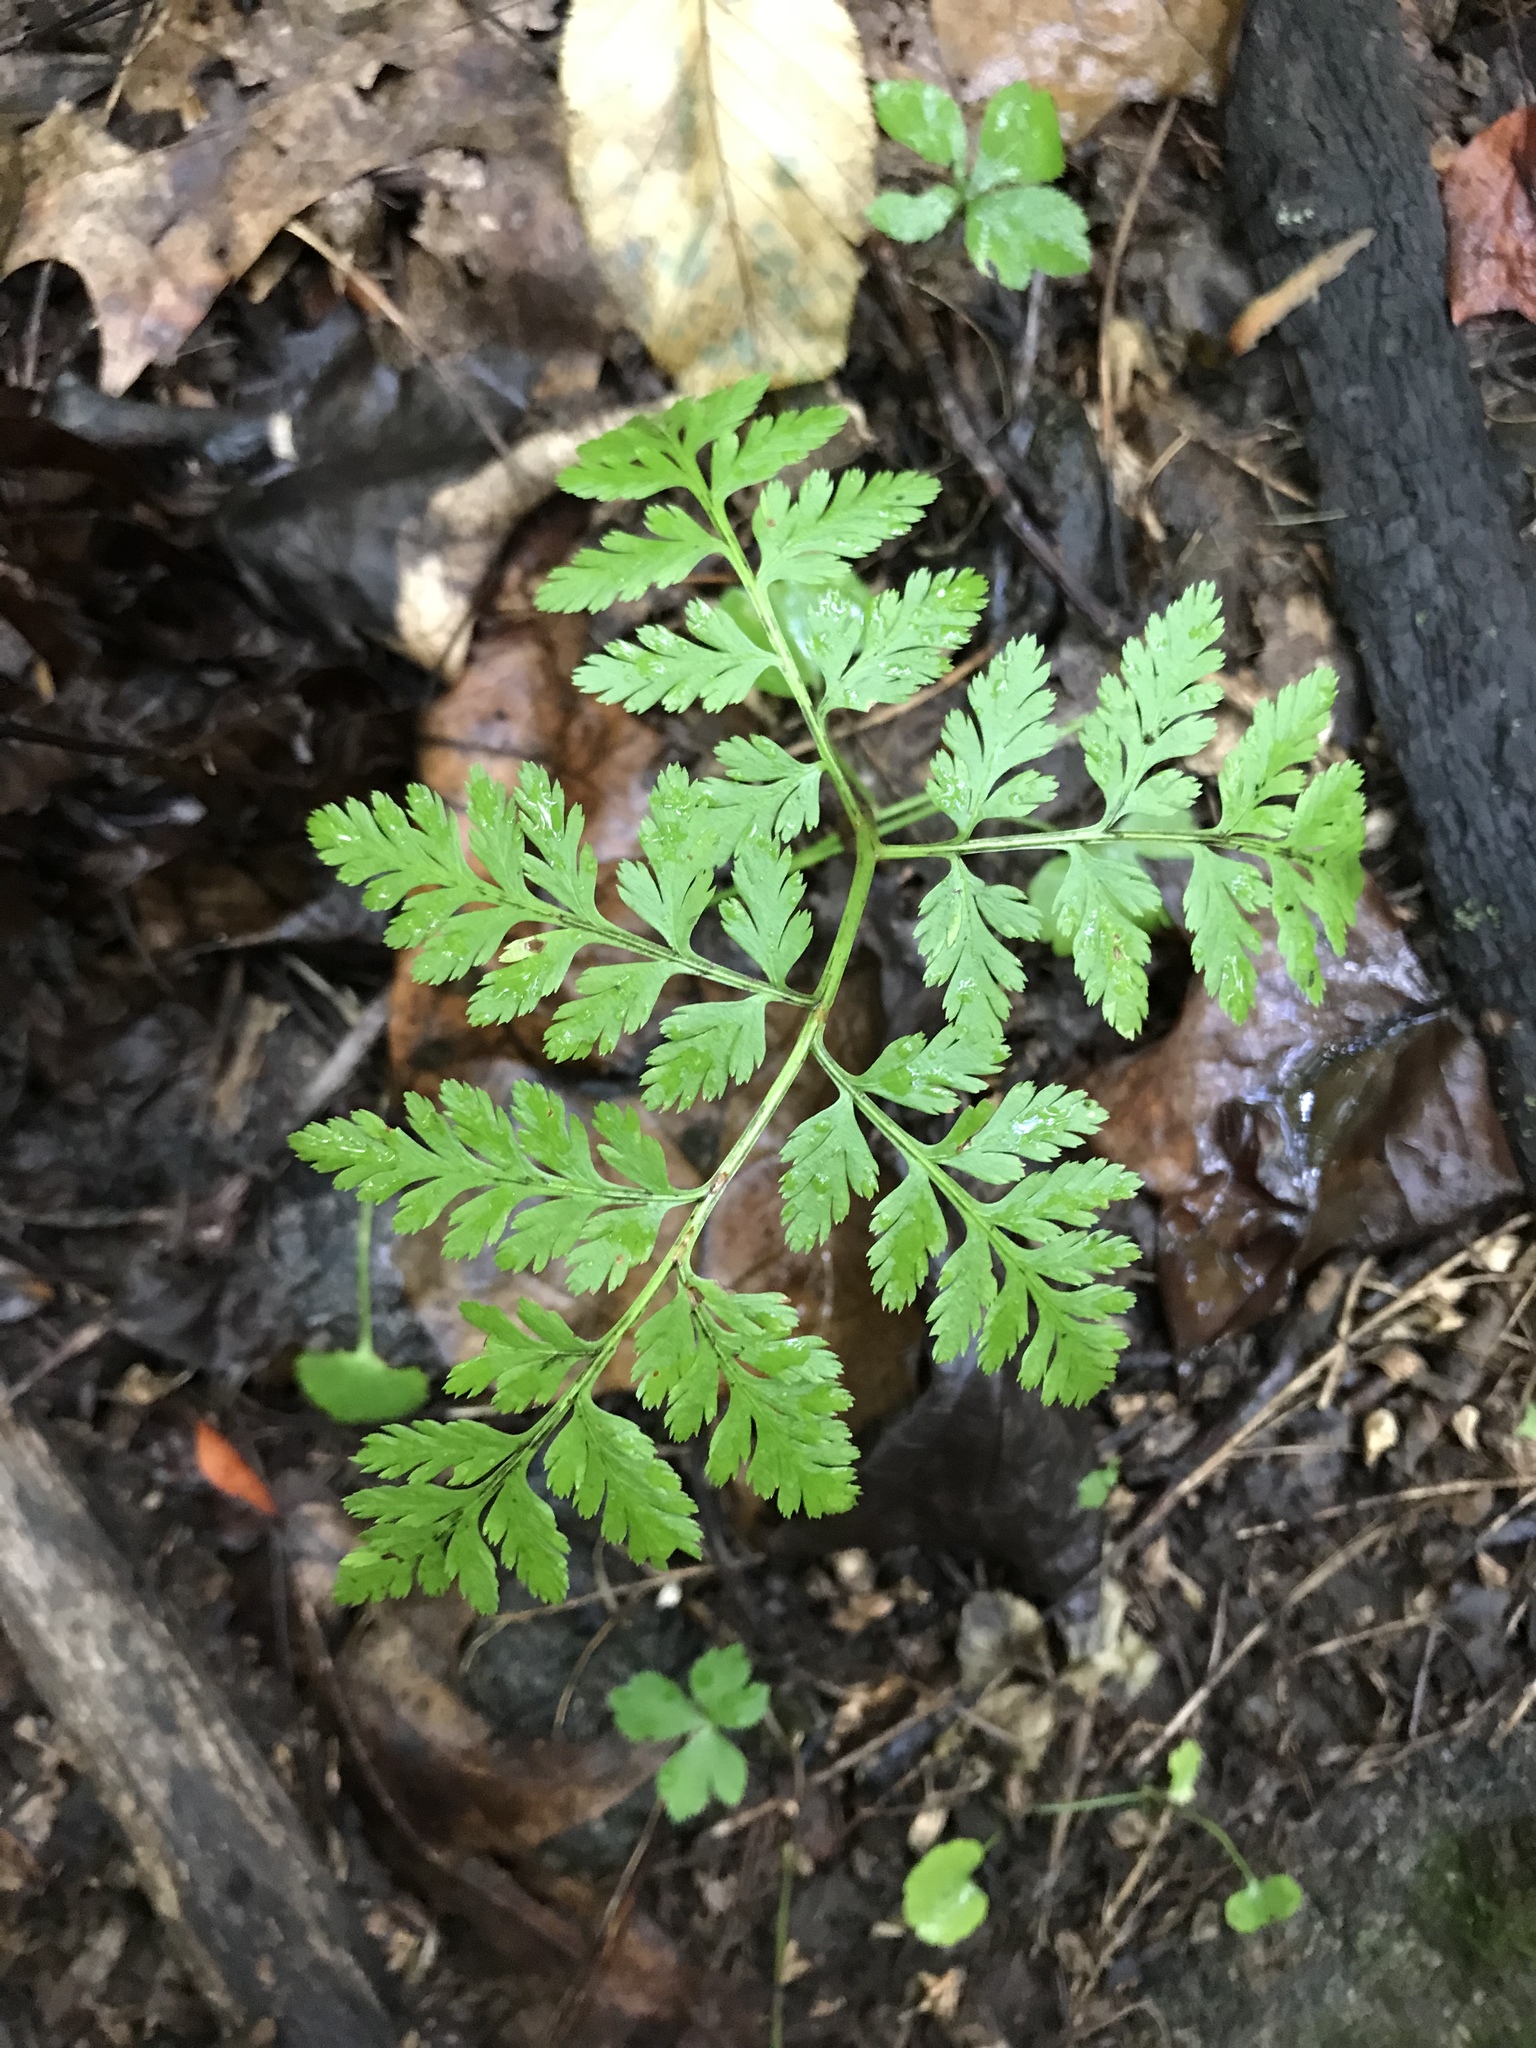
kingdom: Plantae
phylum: Tracheophyta
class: Polypodiopsida
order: Ophioglossales
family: Ophioglossaceae
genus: Botrypus
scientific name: Botrypus virginianus
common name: Common grapefern
